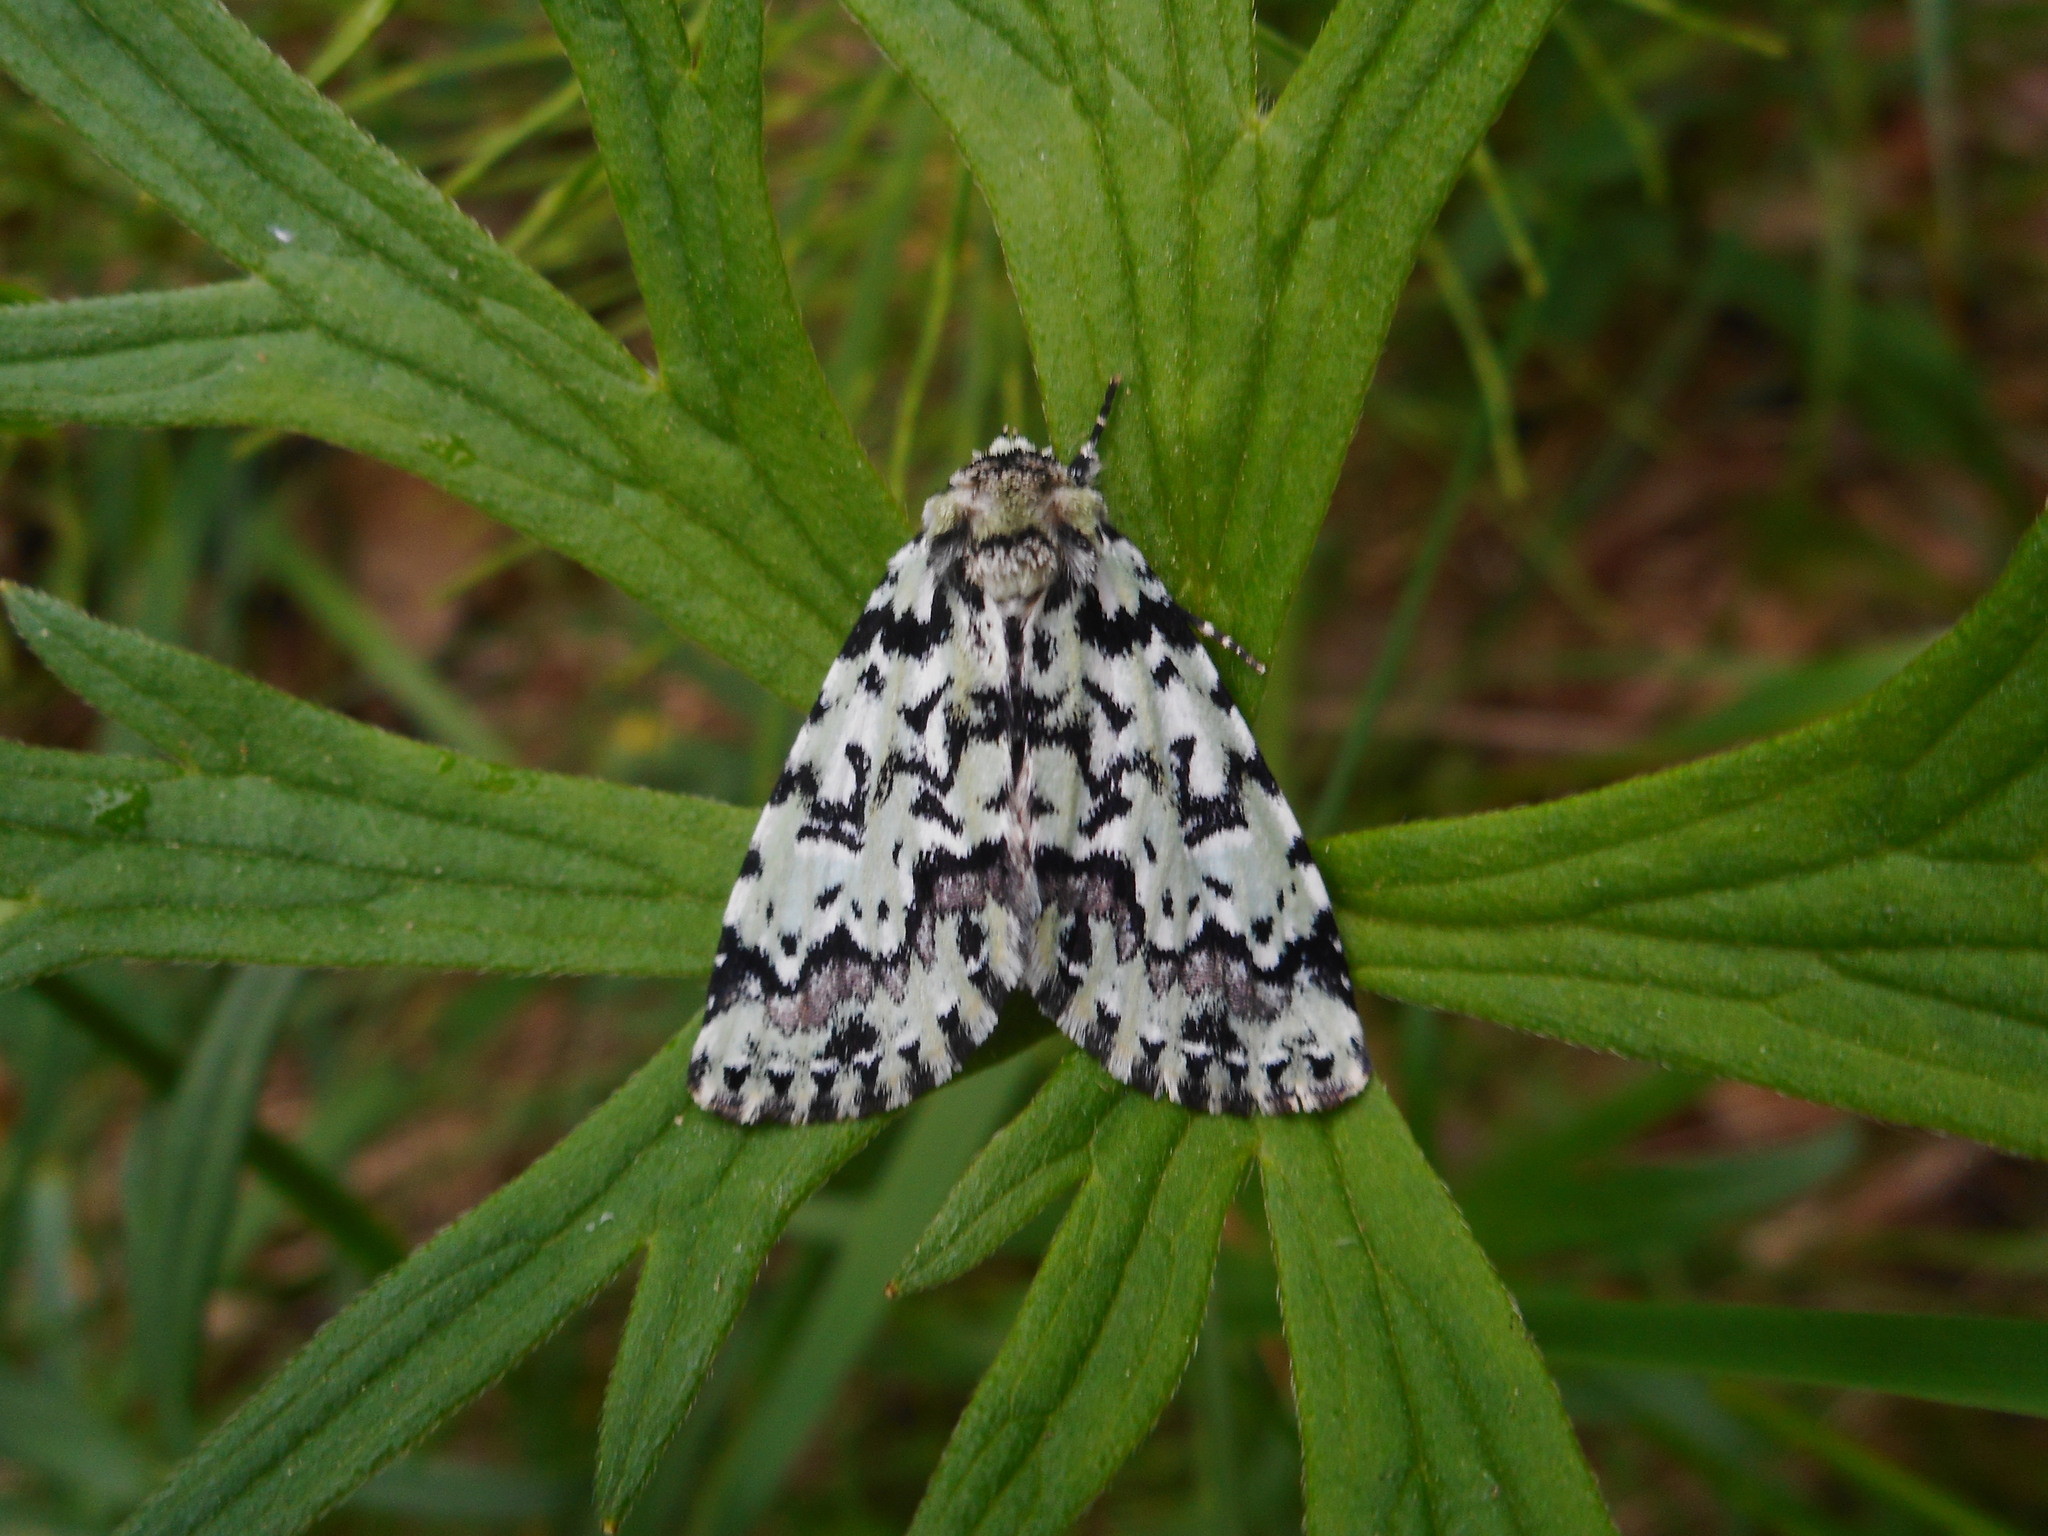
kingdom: Animalia
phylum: Arthropoda
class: Insecta
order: Lepidoptera
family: Noctuidae
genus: Moma
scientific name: Moma alpium
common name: Scarce merveille du jour
